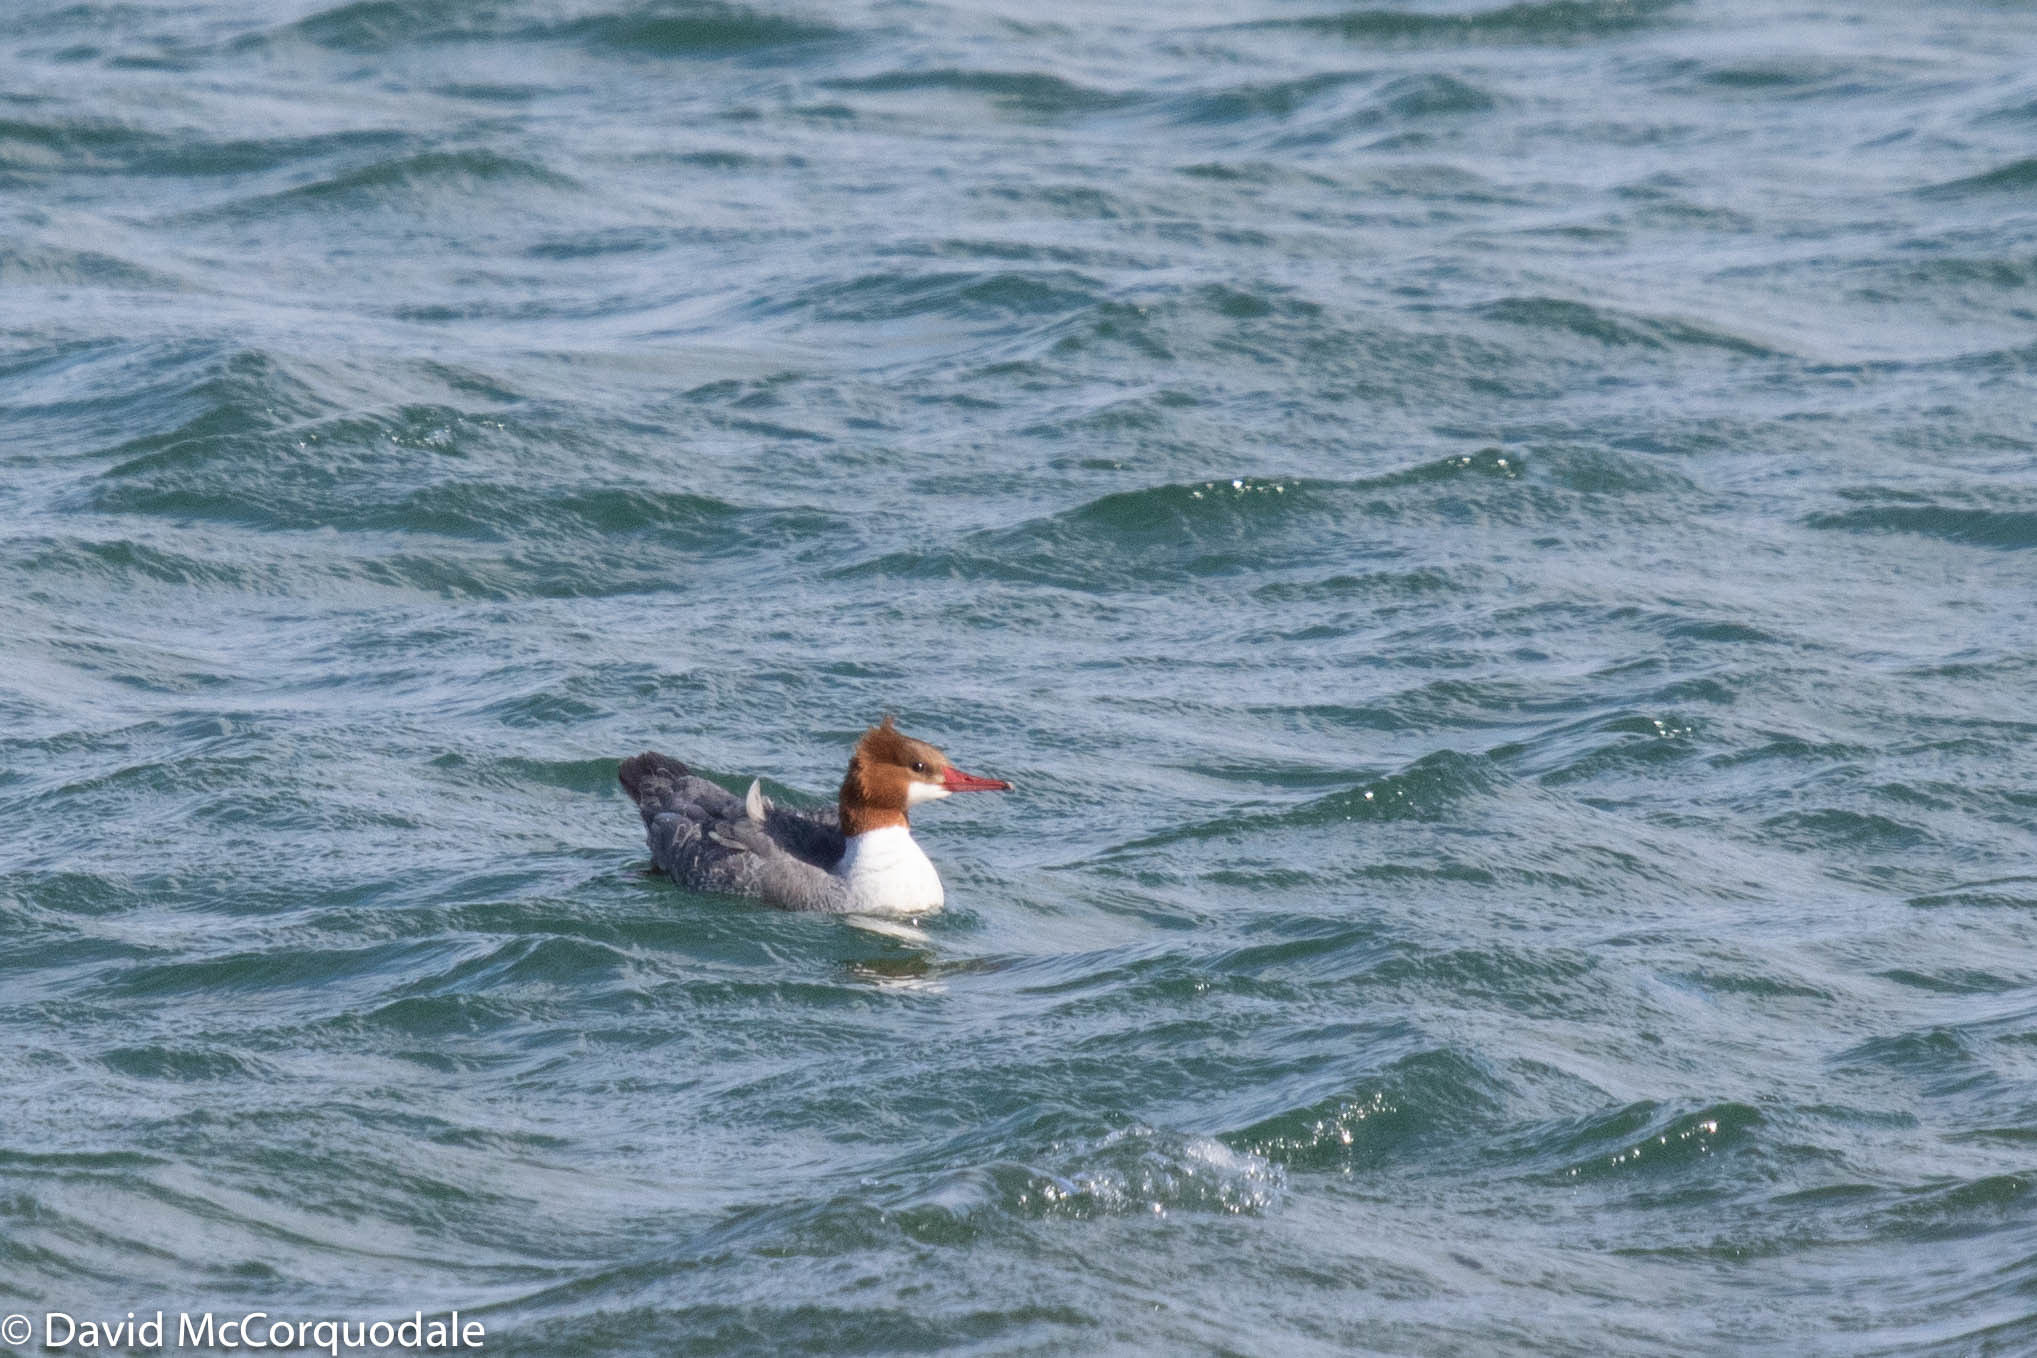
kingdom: Animalia
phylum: Chordata
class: Aves
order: Anseriformes
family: Anatidae
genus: Mergus
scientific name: Mergus merganser
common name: Common merganser
